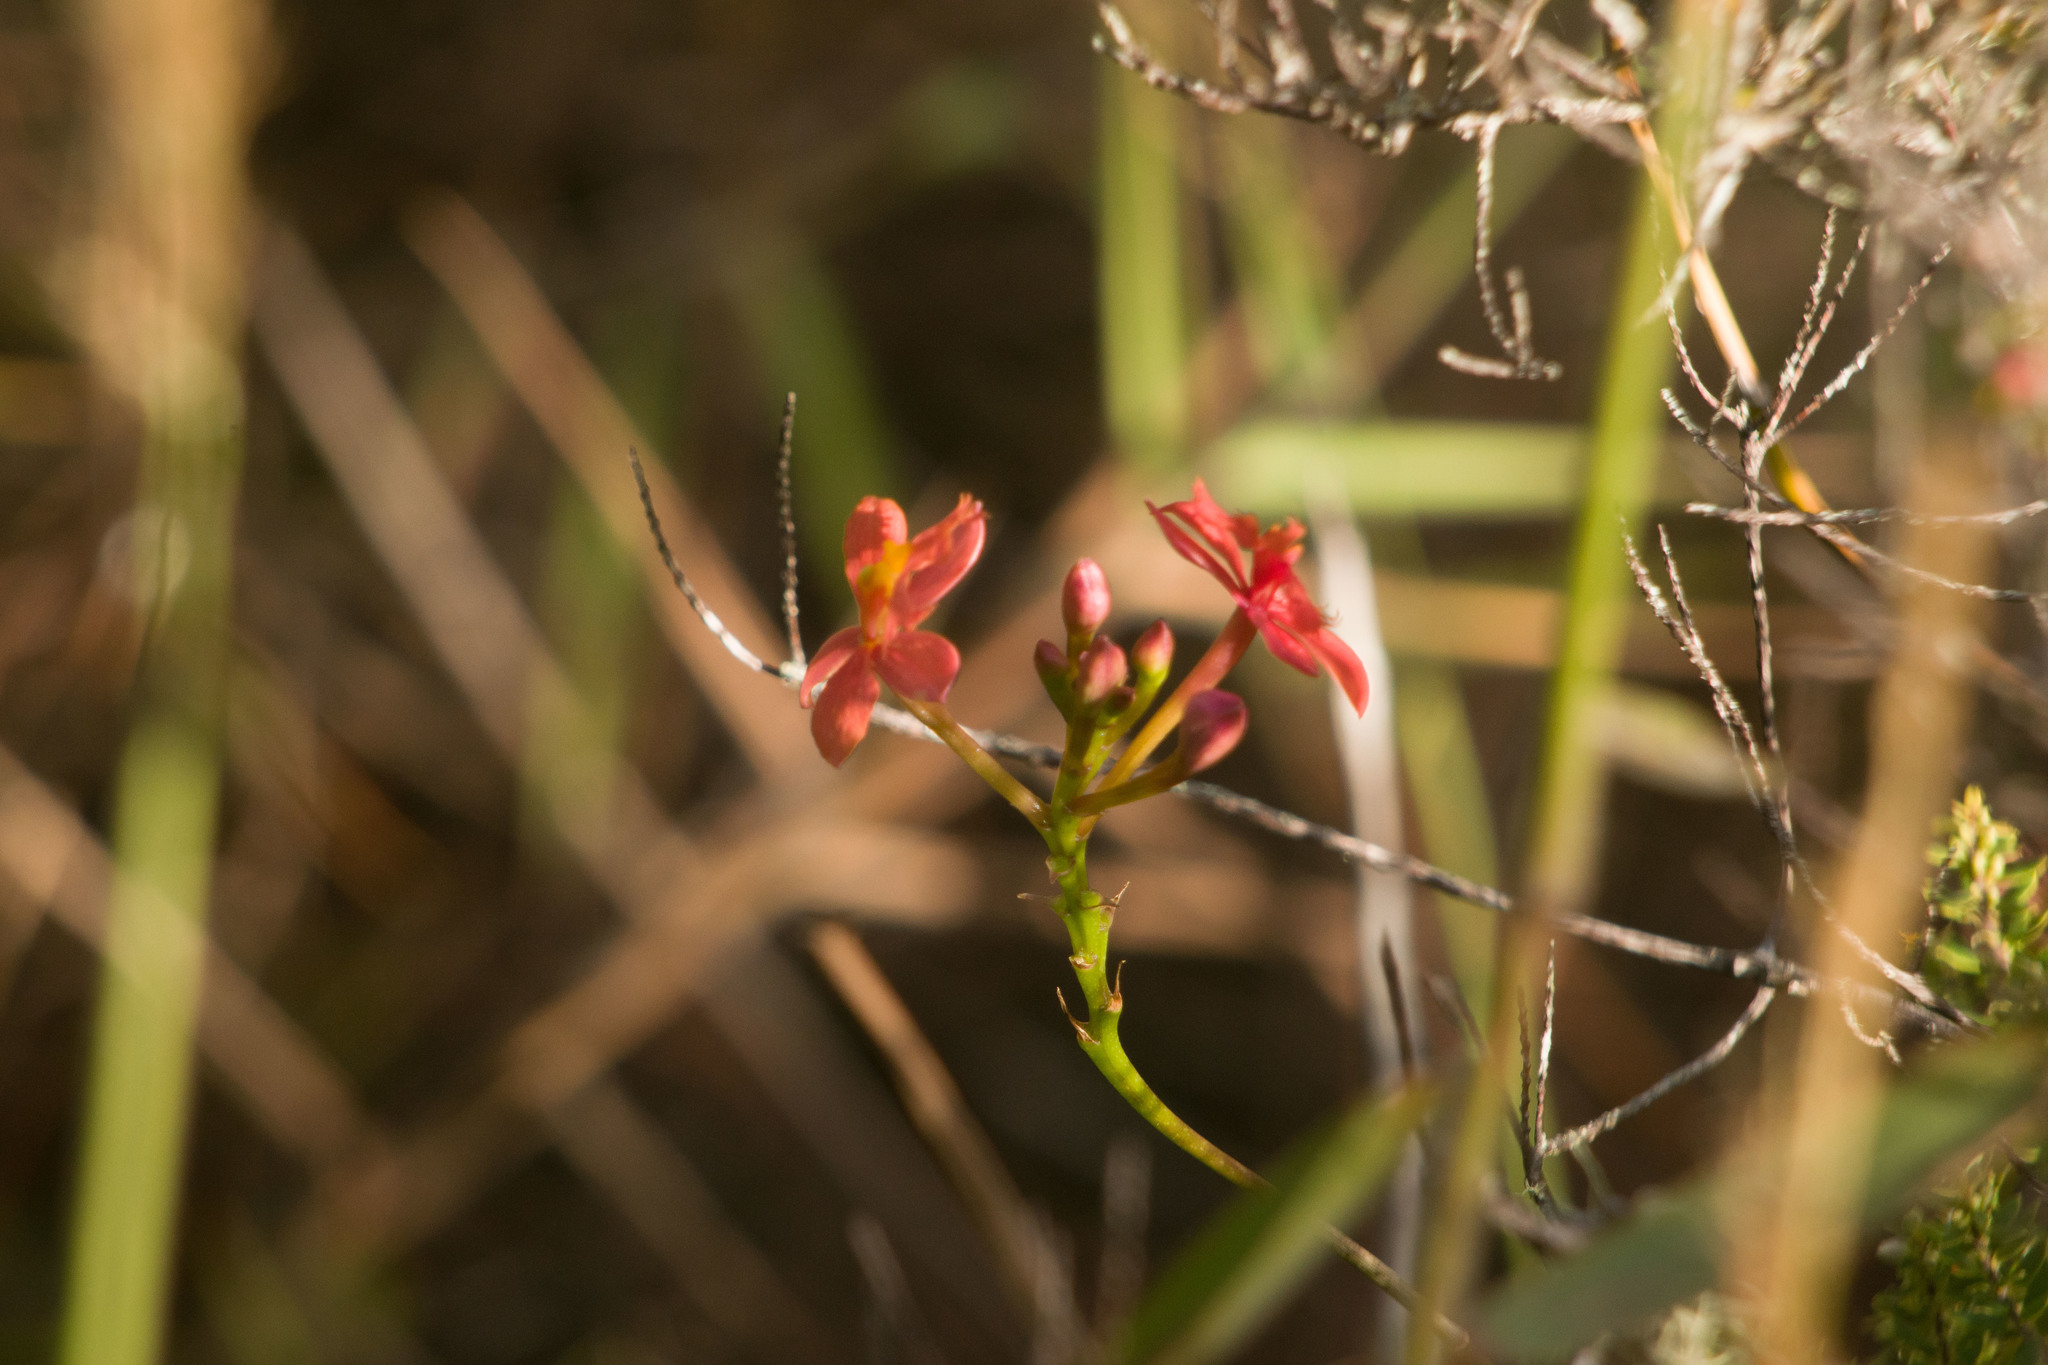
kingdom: Plantae
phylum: Tracheophyta
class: Liliopsida
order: Asparagales
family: Orchidaceae
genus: Epidendrum
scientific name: Epidendrum obrienianum
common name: O'brien's star orchid
